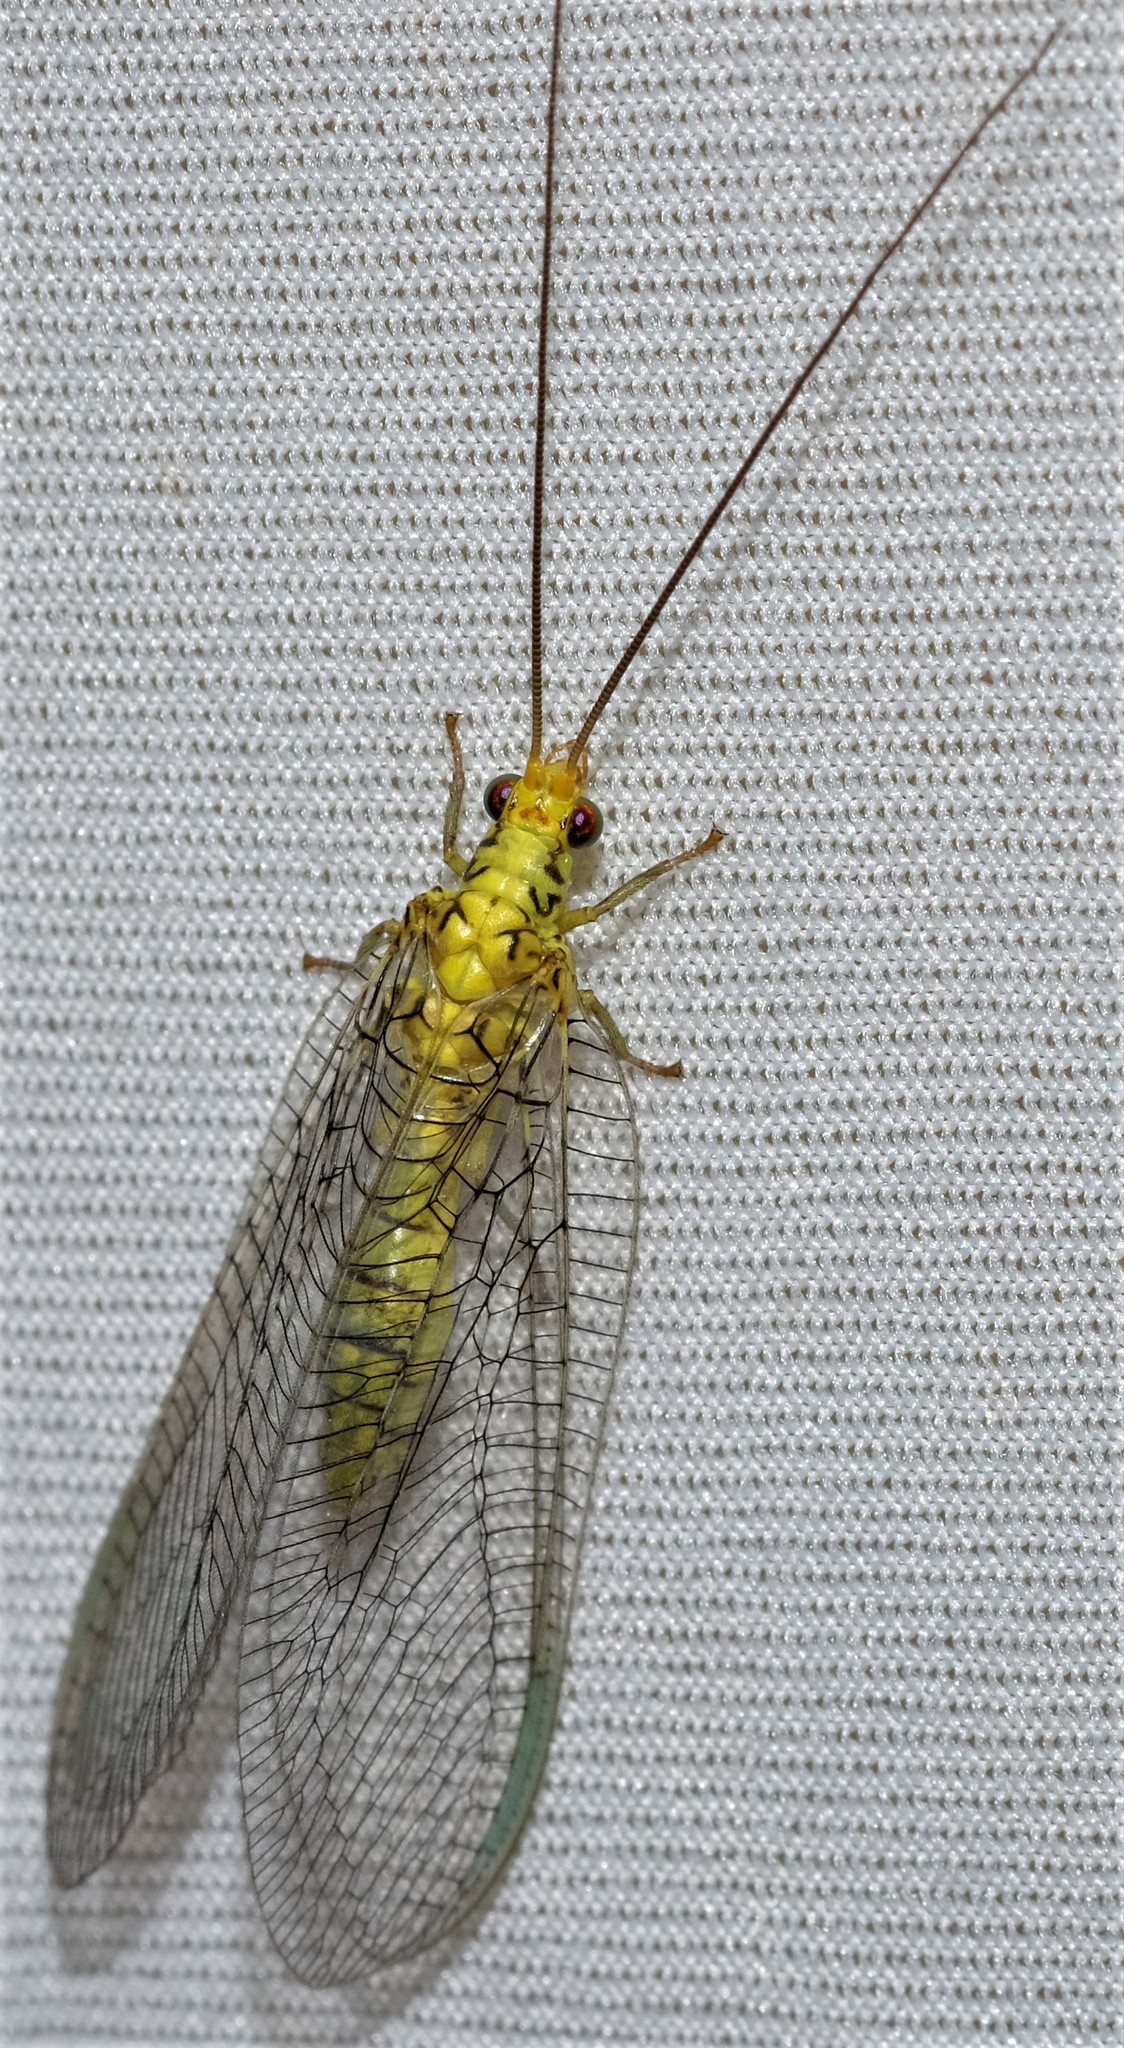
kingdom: Animalia
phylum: Arthropoda
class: Insecta
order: Neuroptera
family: Chrysopidae
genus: Italochrysa
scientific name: Italochrysa insignis
